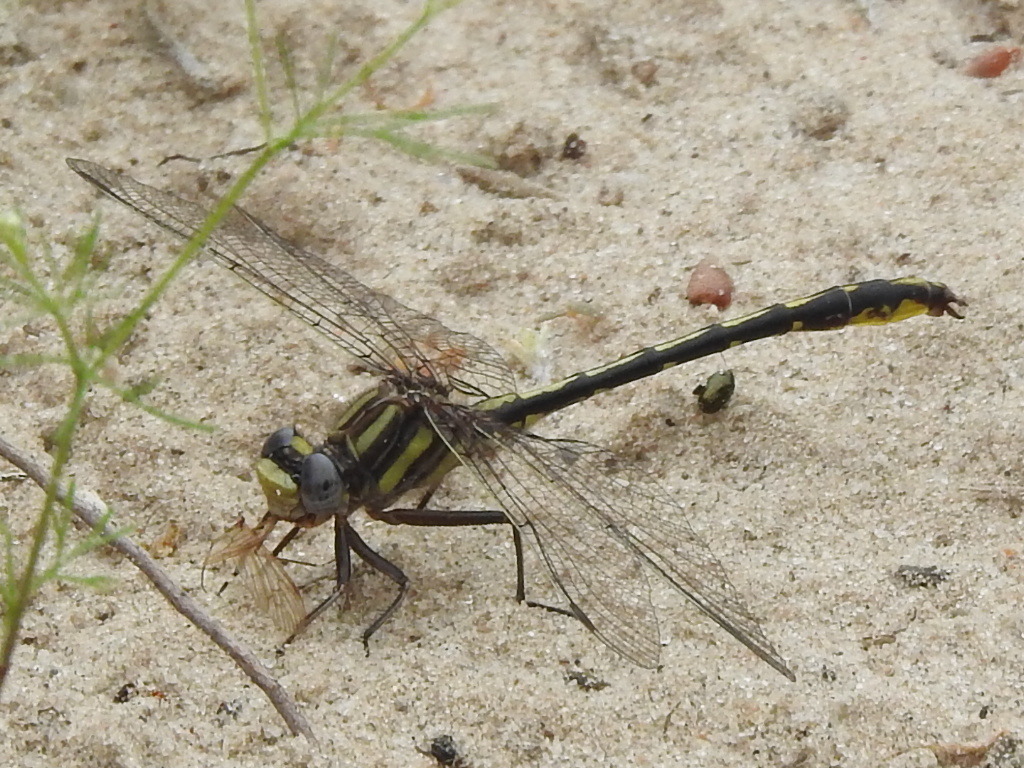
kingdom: Animalia
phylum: Arthropoda
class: Insecta
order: Odonata
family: Gomphidae
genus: Phanogomphus
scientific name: Phanogomphus oklahomensis
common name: Oklahoma clubtail
